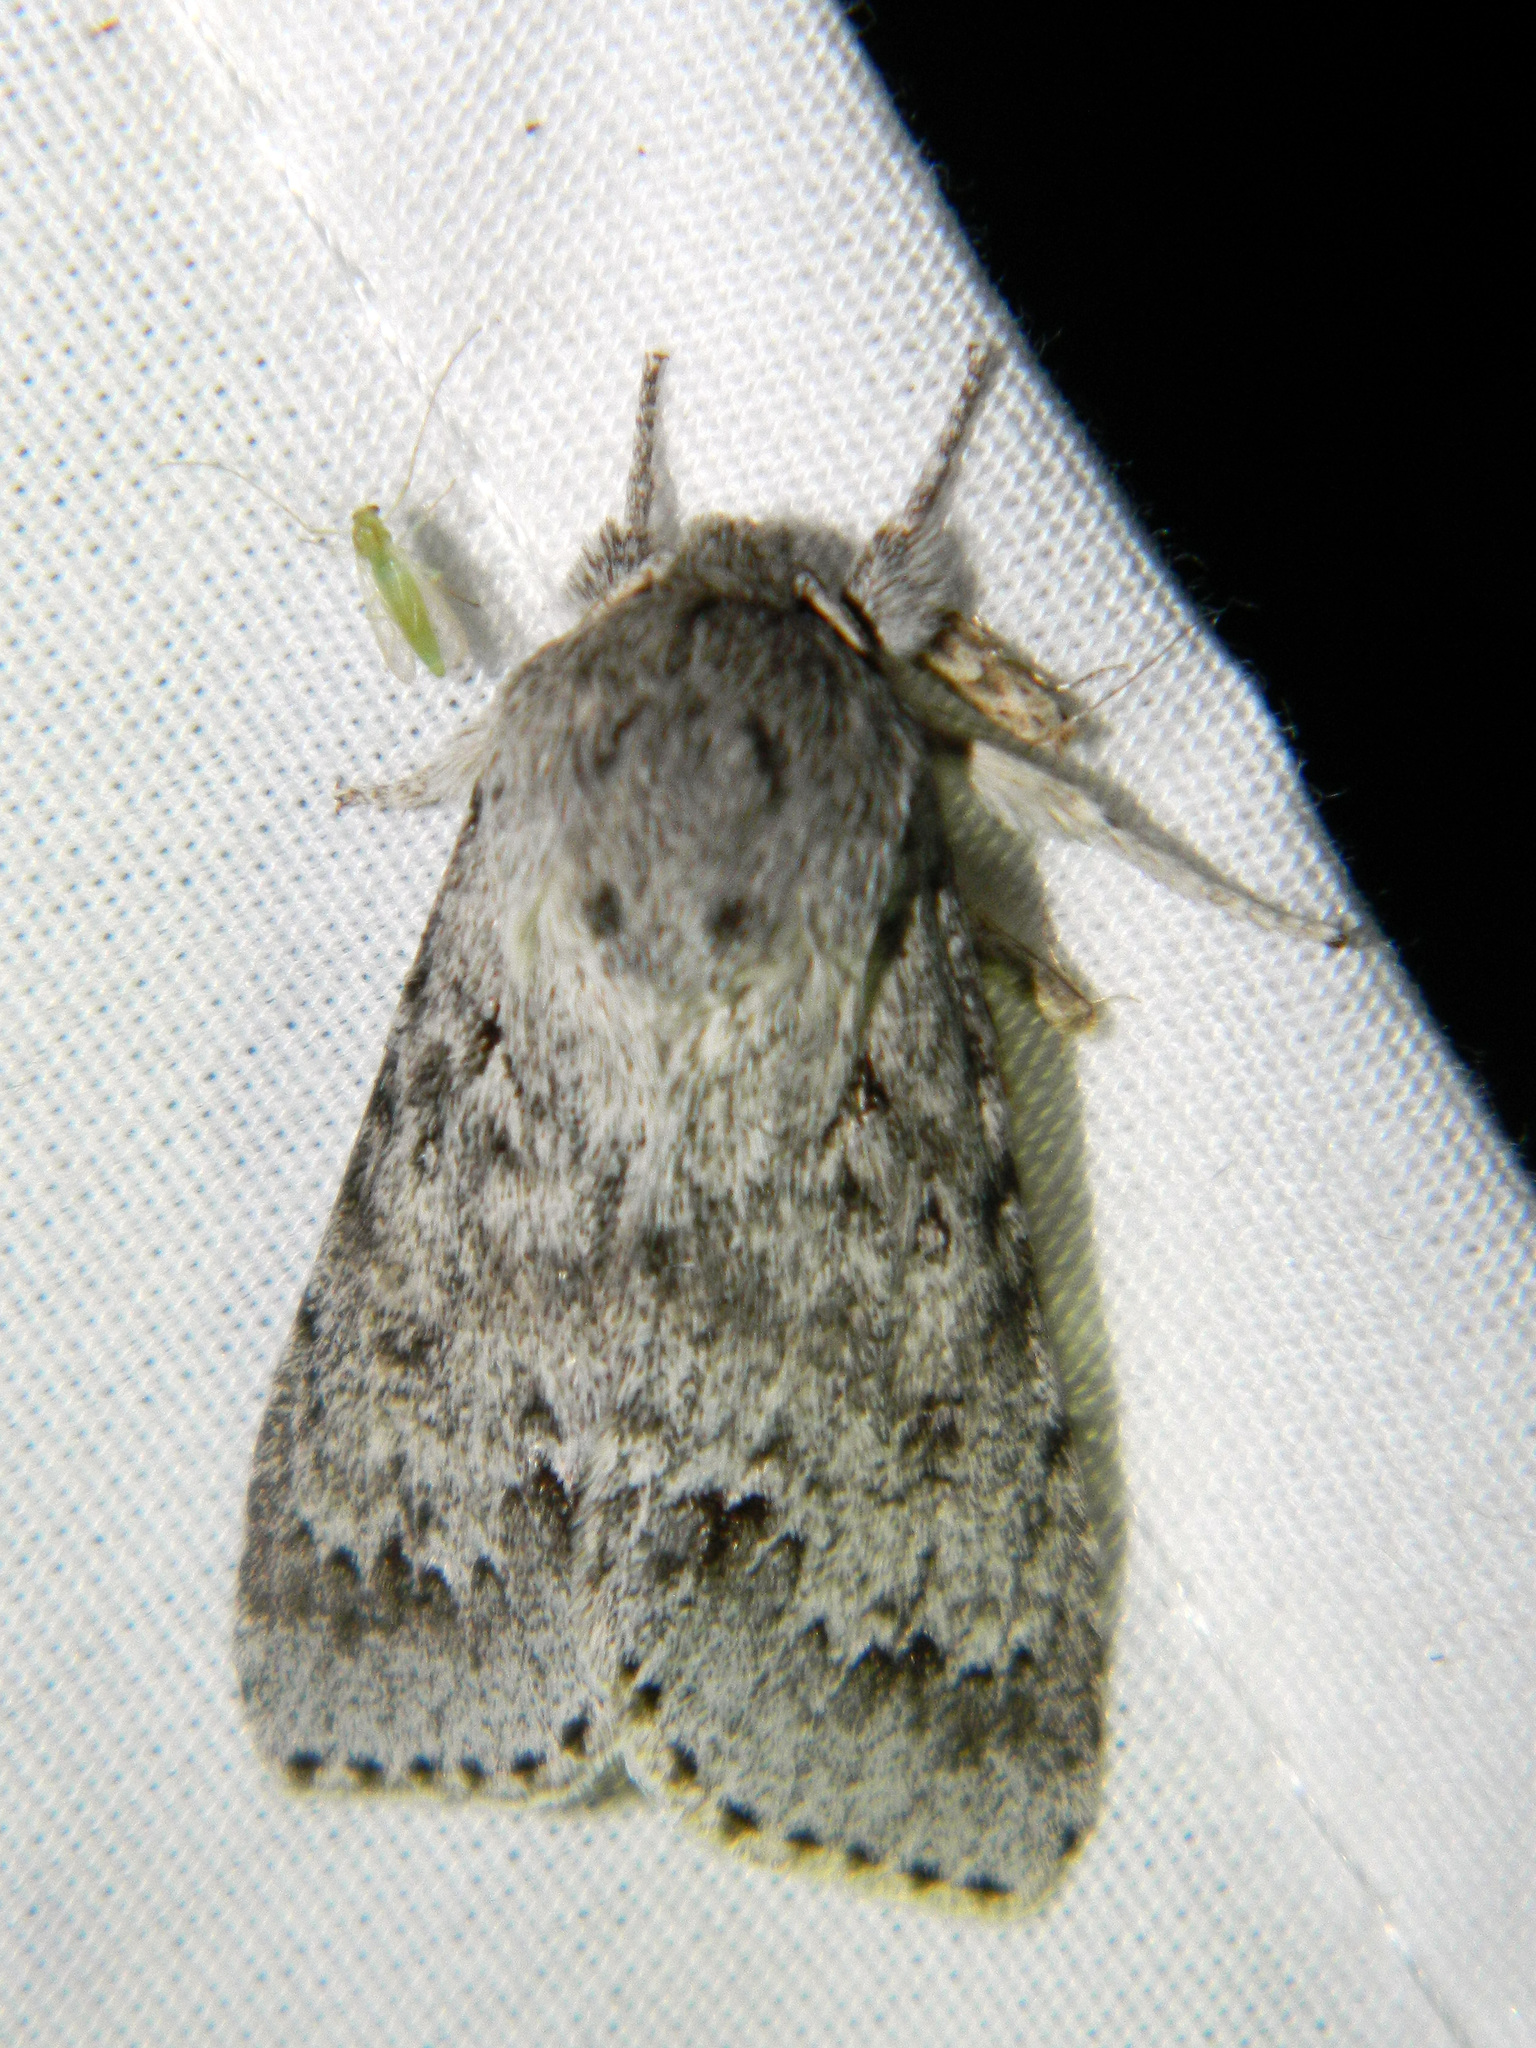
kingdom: Animalia
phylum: Arthropoda
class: Insecta
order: Lepidoptera
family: Noctuidae
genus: Acronicta
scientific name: Acronicta insita
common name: Large gray dagger
